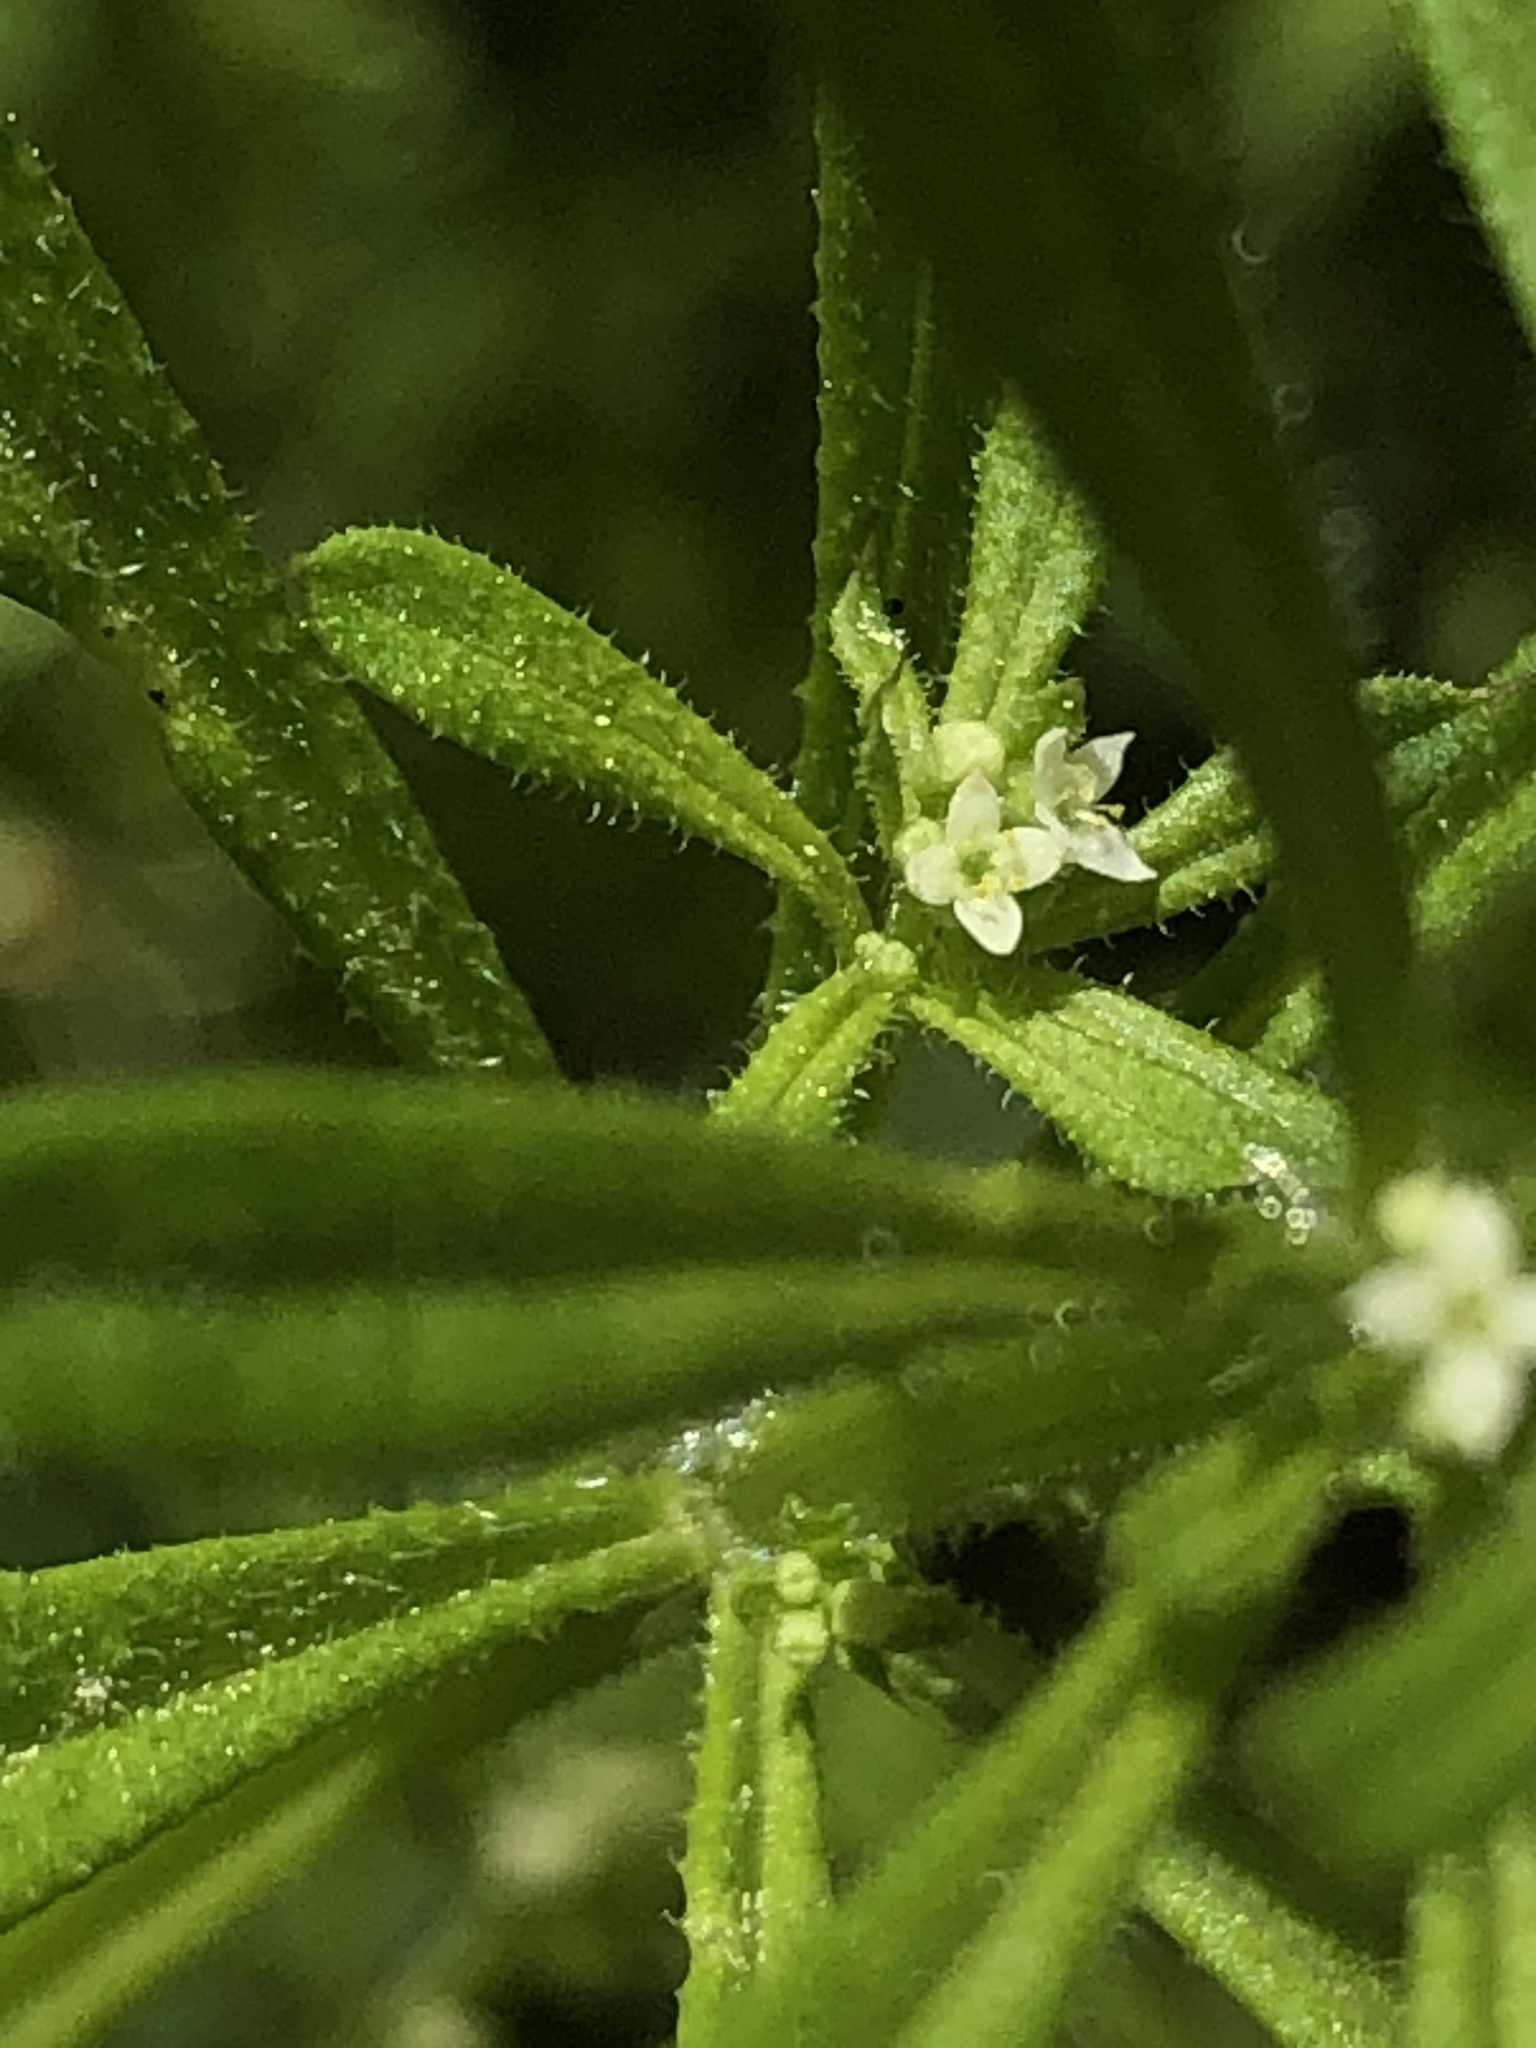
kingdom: Plantae
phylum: Tracheophyta
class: Magnoliopsida
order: Gentianales
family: Rubiaceae
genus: Galium
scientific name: Galium aparine
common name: Cleavers
